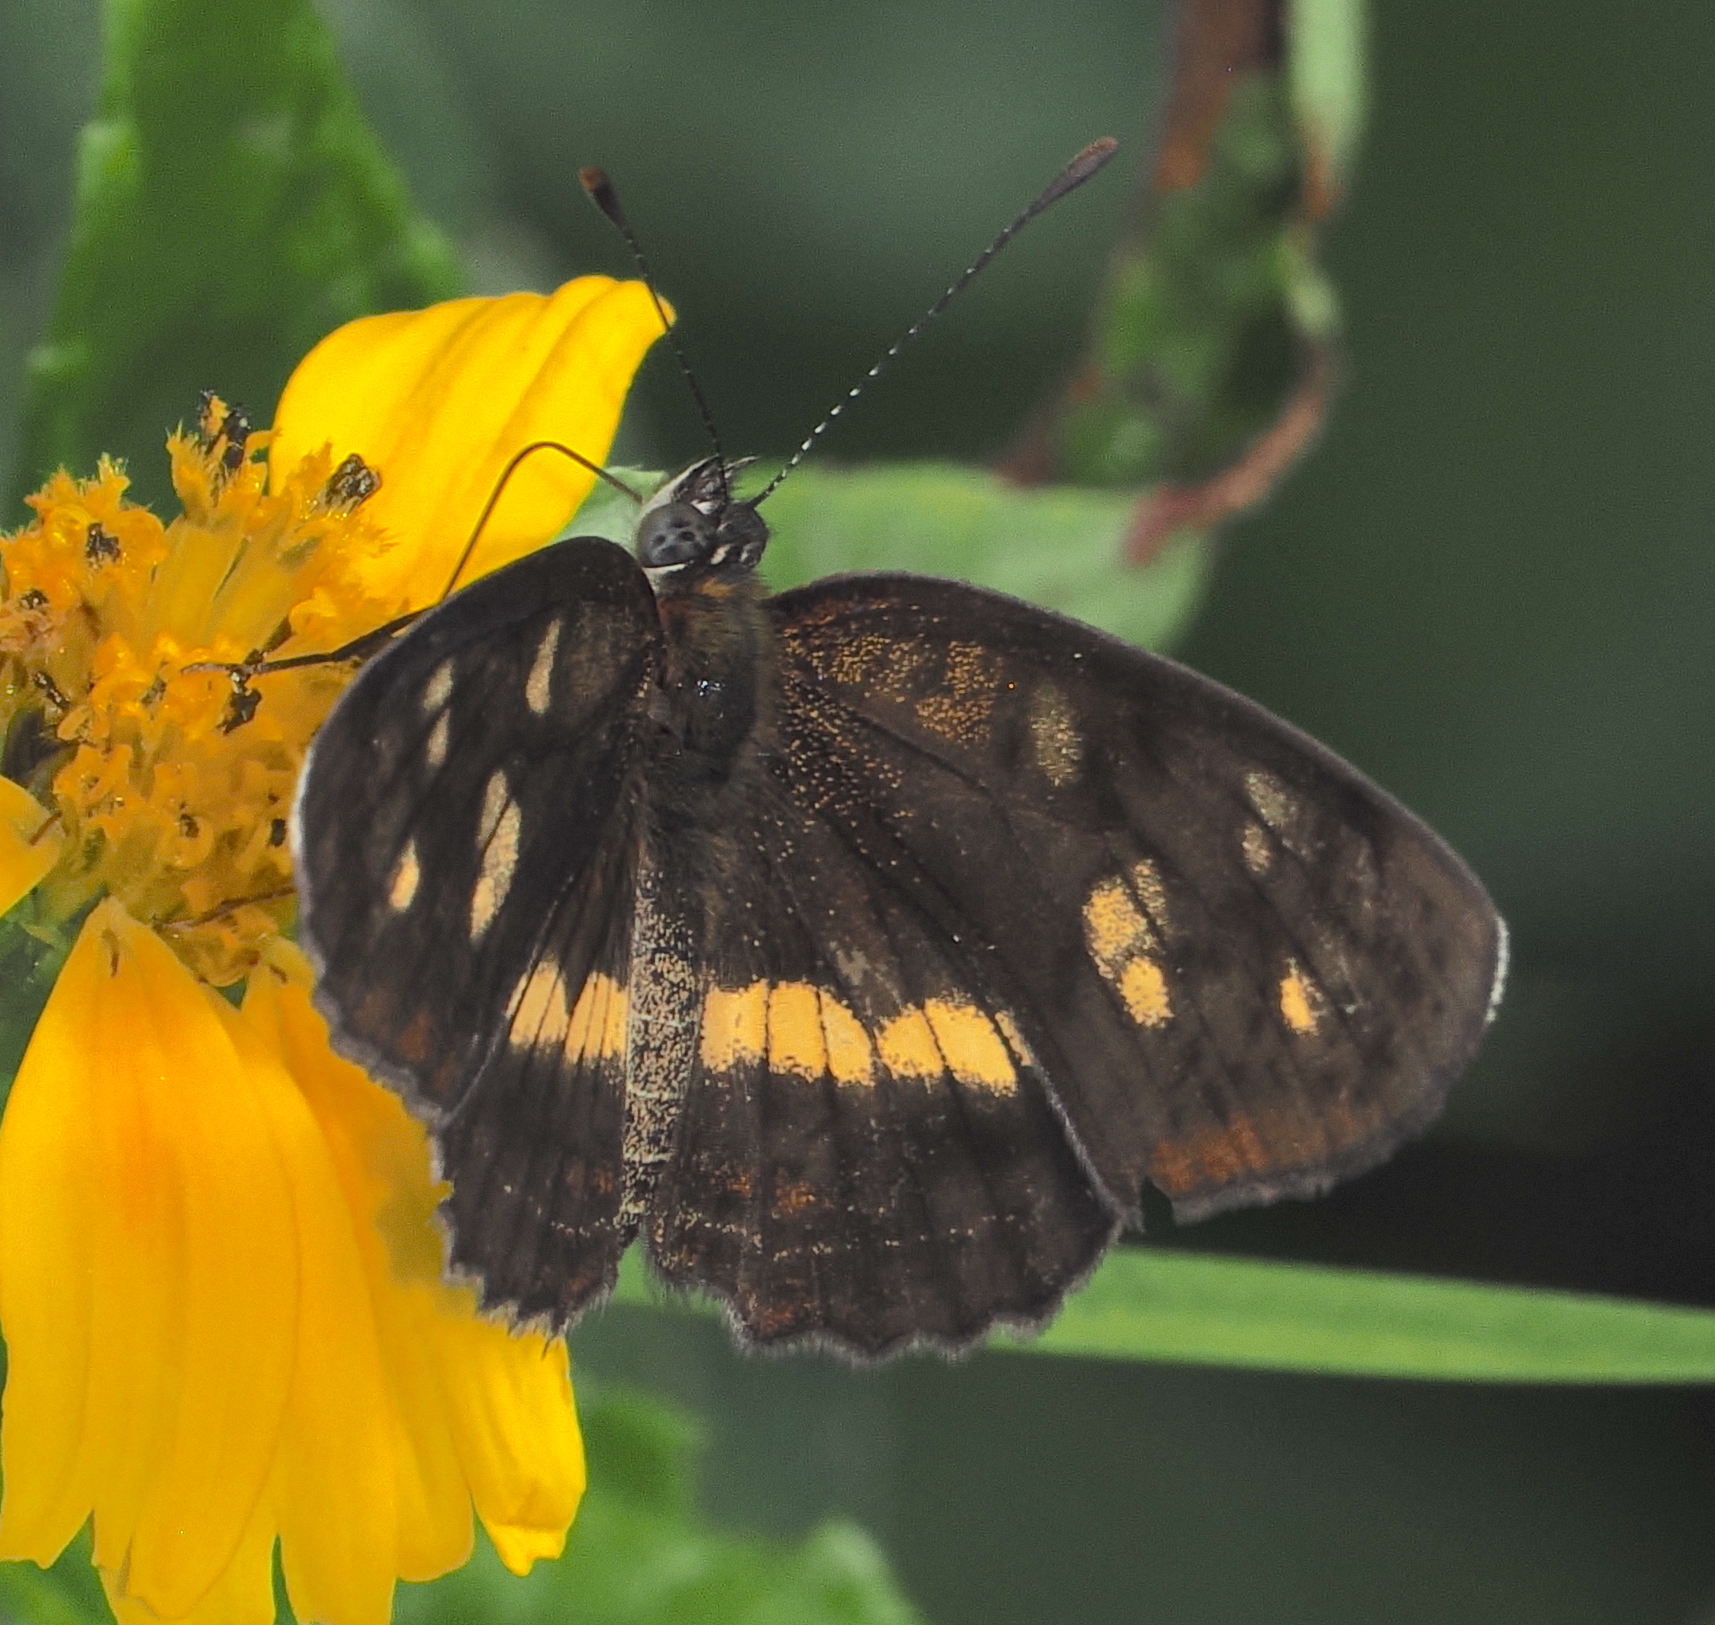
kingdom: Animalia
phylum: Arthropoda
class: Insecta
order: Lepidoptera
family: Nymphalidae
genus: Eresia
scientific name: Eresia polina
